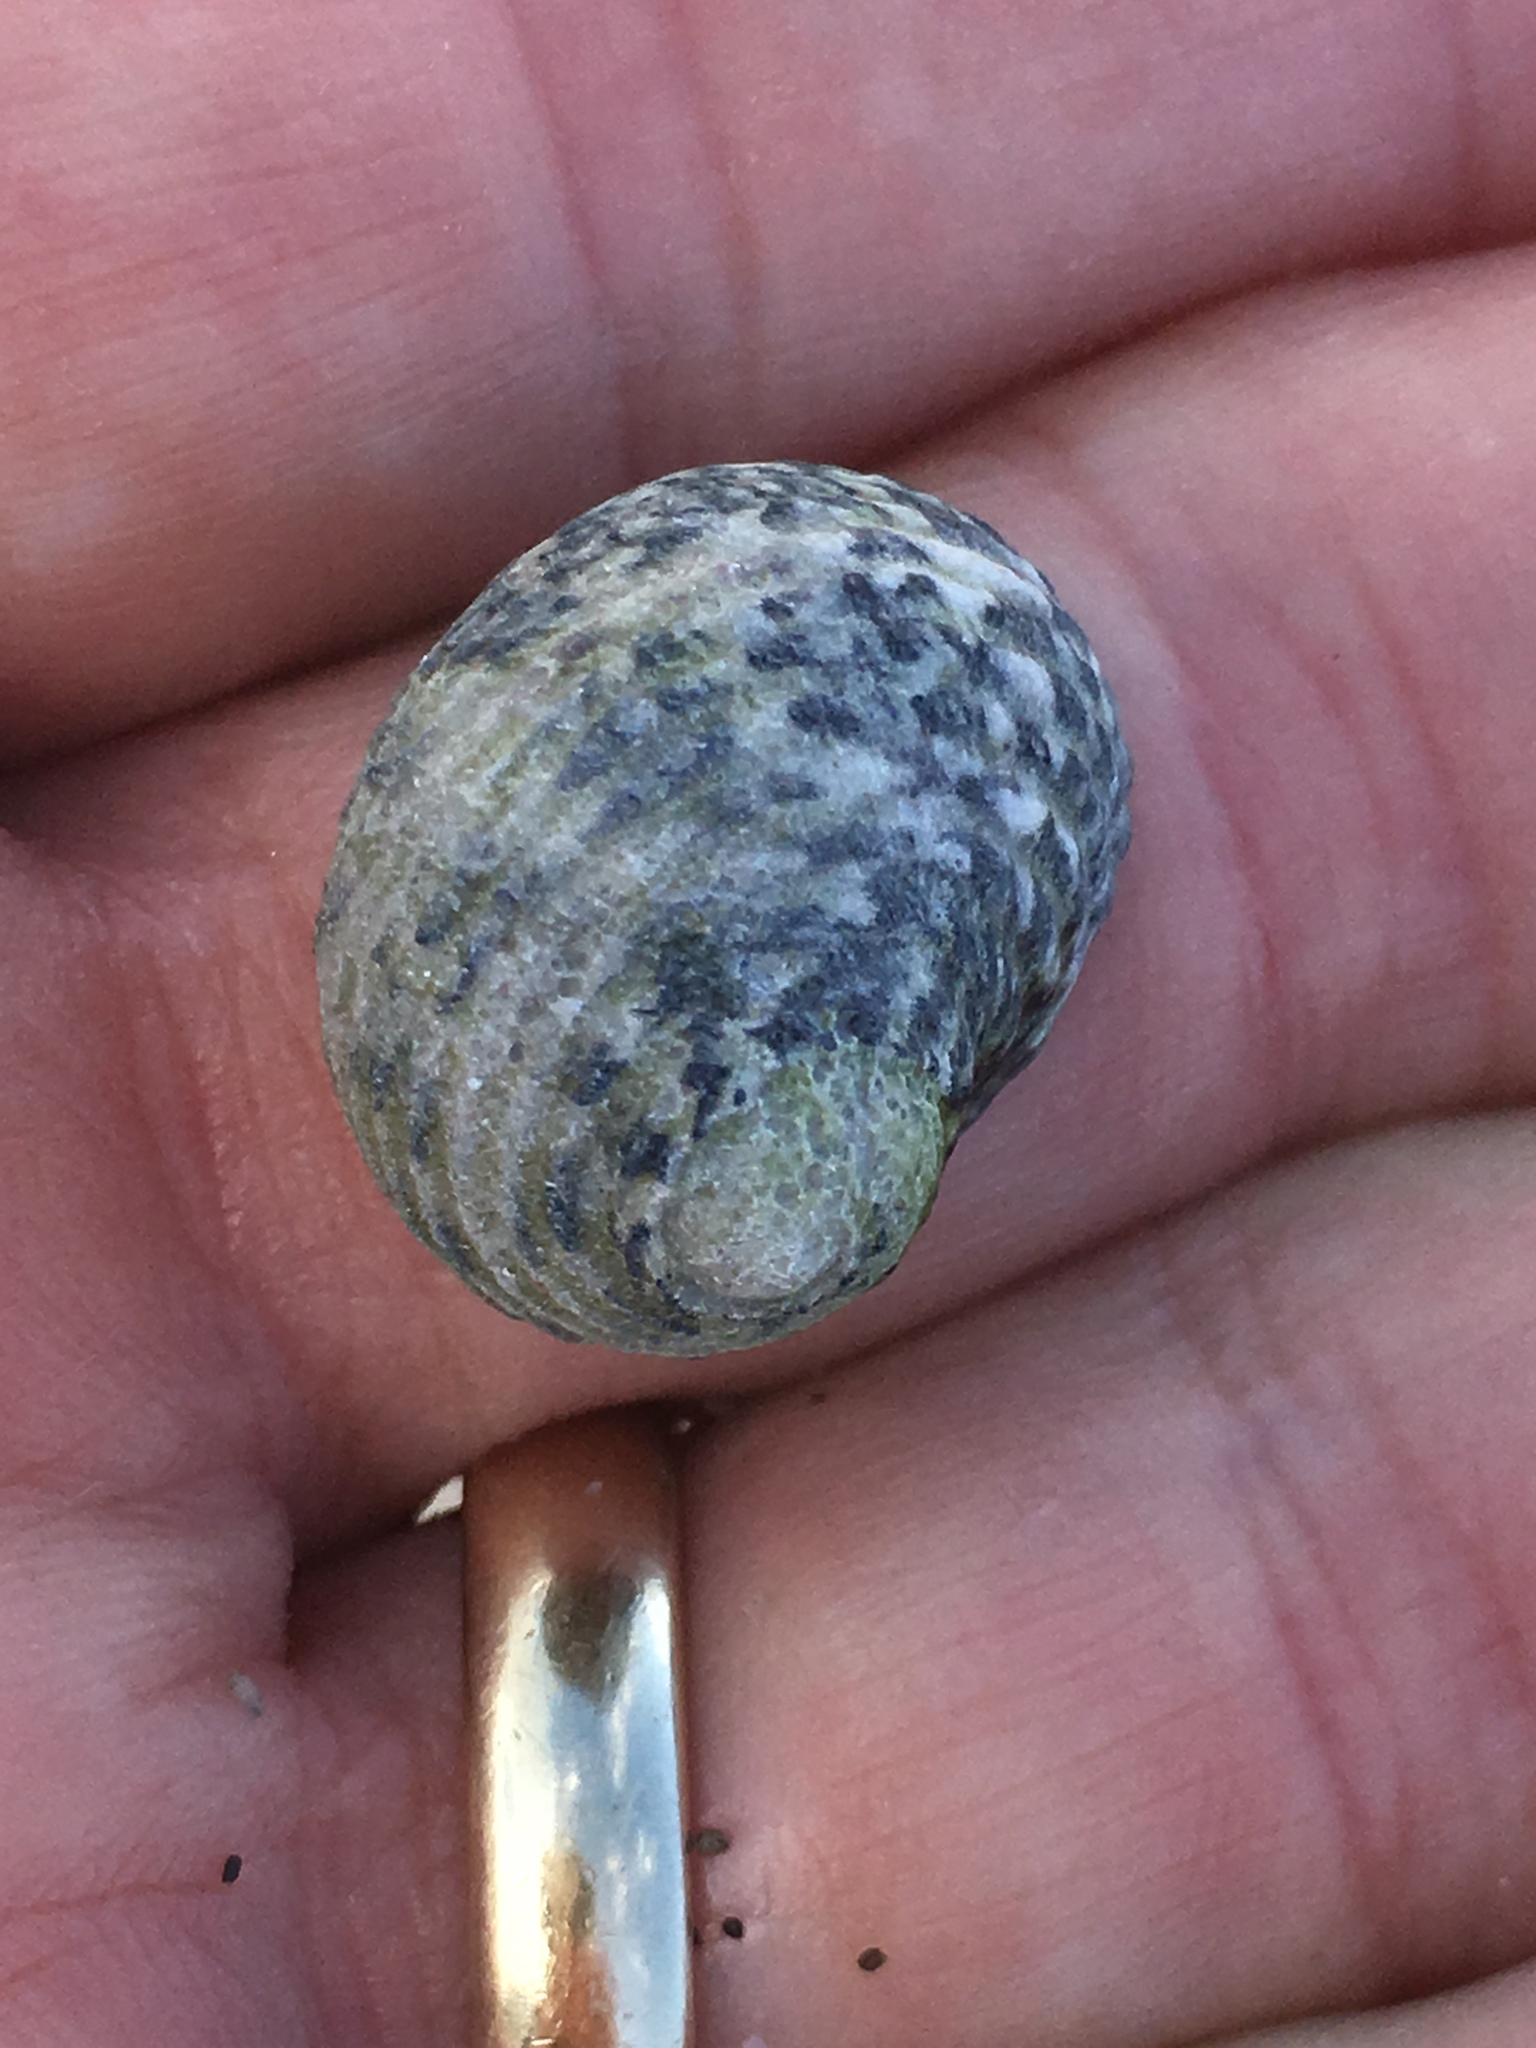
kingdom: Animalia
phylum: Mollusca
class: Gastropoda
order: Cycloneritida
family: Neritidae
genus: Nerita
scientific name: Nerita versicolor
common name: Four-tooth nerite
